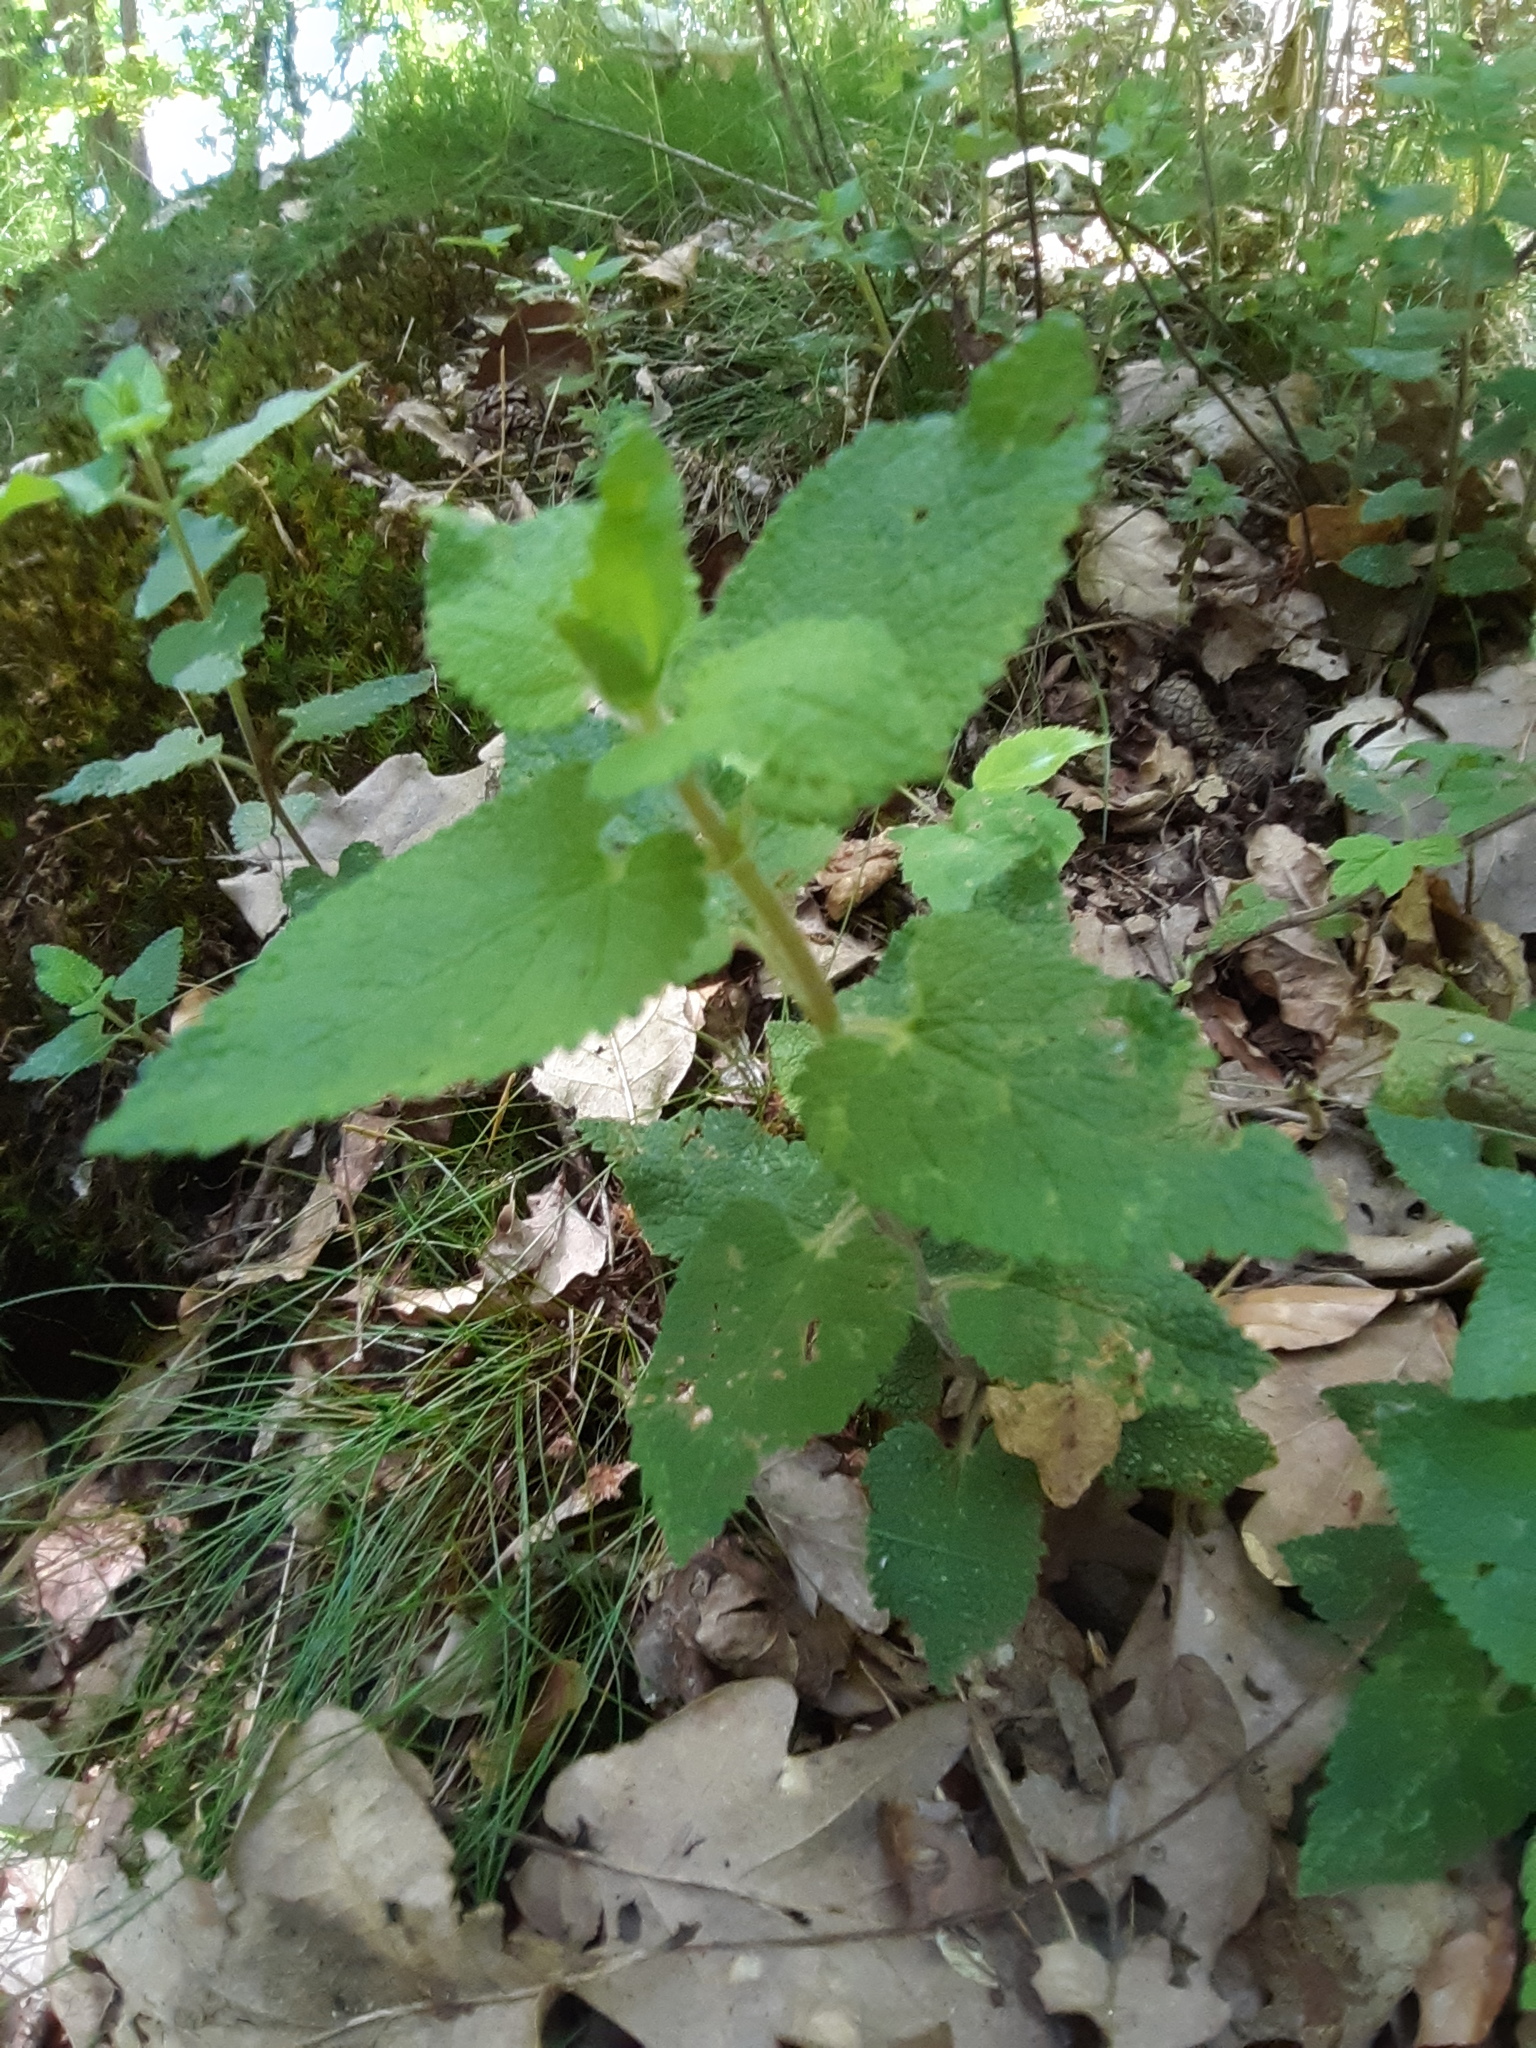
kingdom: Plantae
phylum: Tracheophyta
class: Magnoliopsida
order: Lamiales
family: Lamiaceae
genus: Teucrium
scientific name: Teucrium scorodonia
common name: Woodland germander
